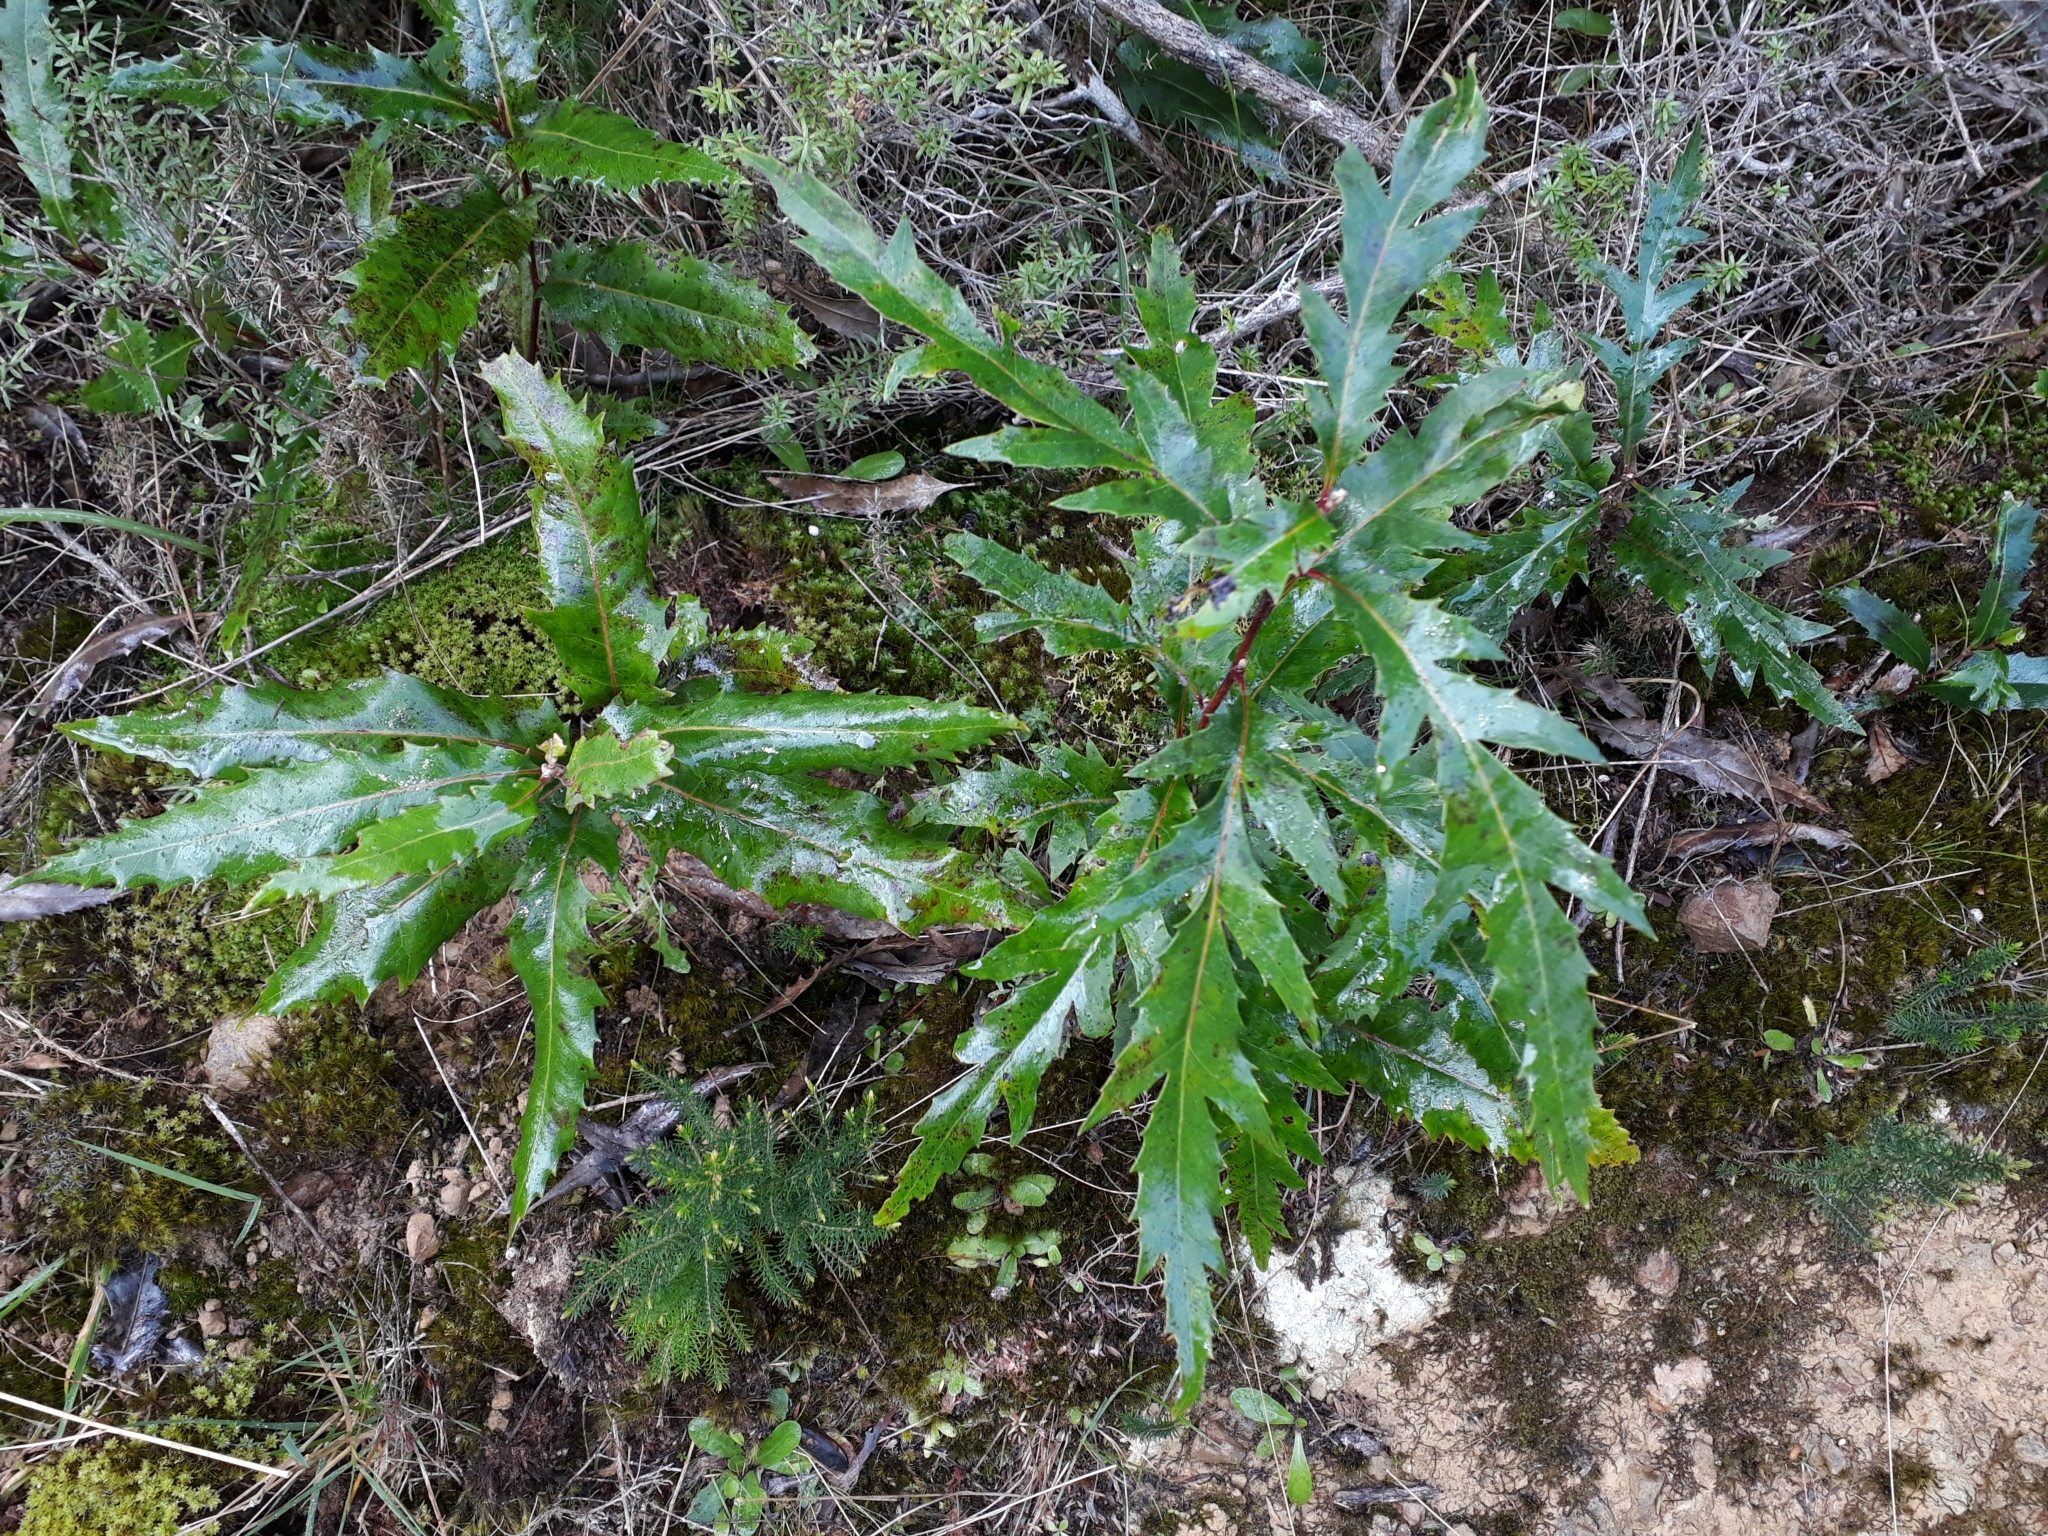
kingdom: Plantae
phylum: Tracheophyta
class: Magnoliopsida
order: Proteales
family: Proteaceae
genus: Lomatia
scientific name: Lomatia fraseri
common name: Forest lomatia
